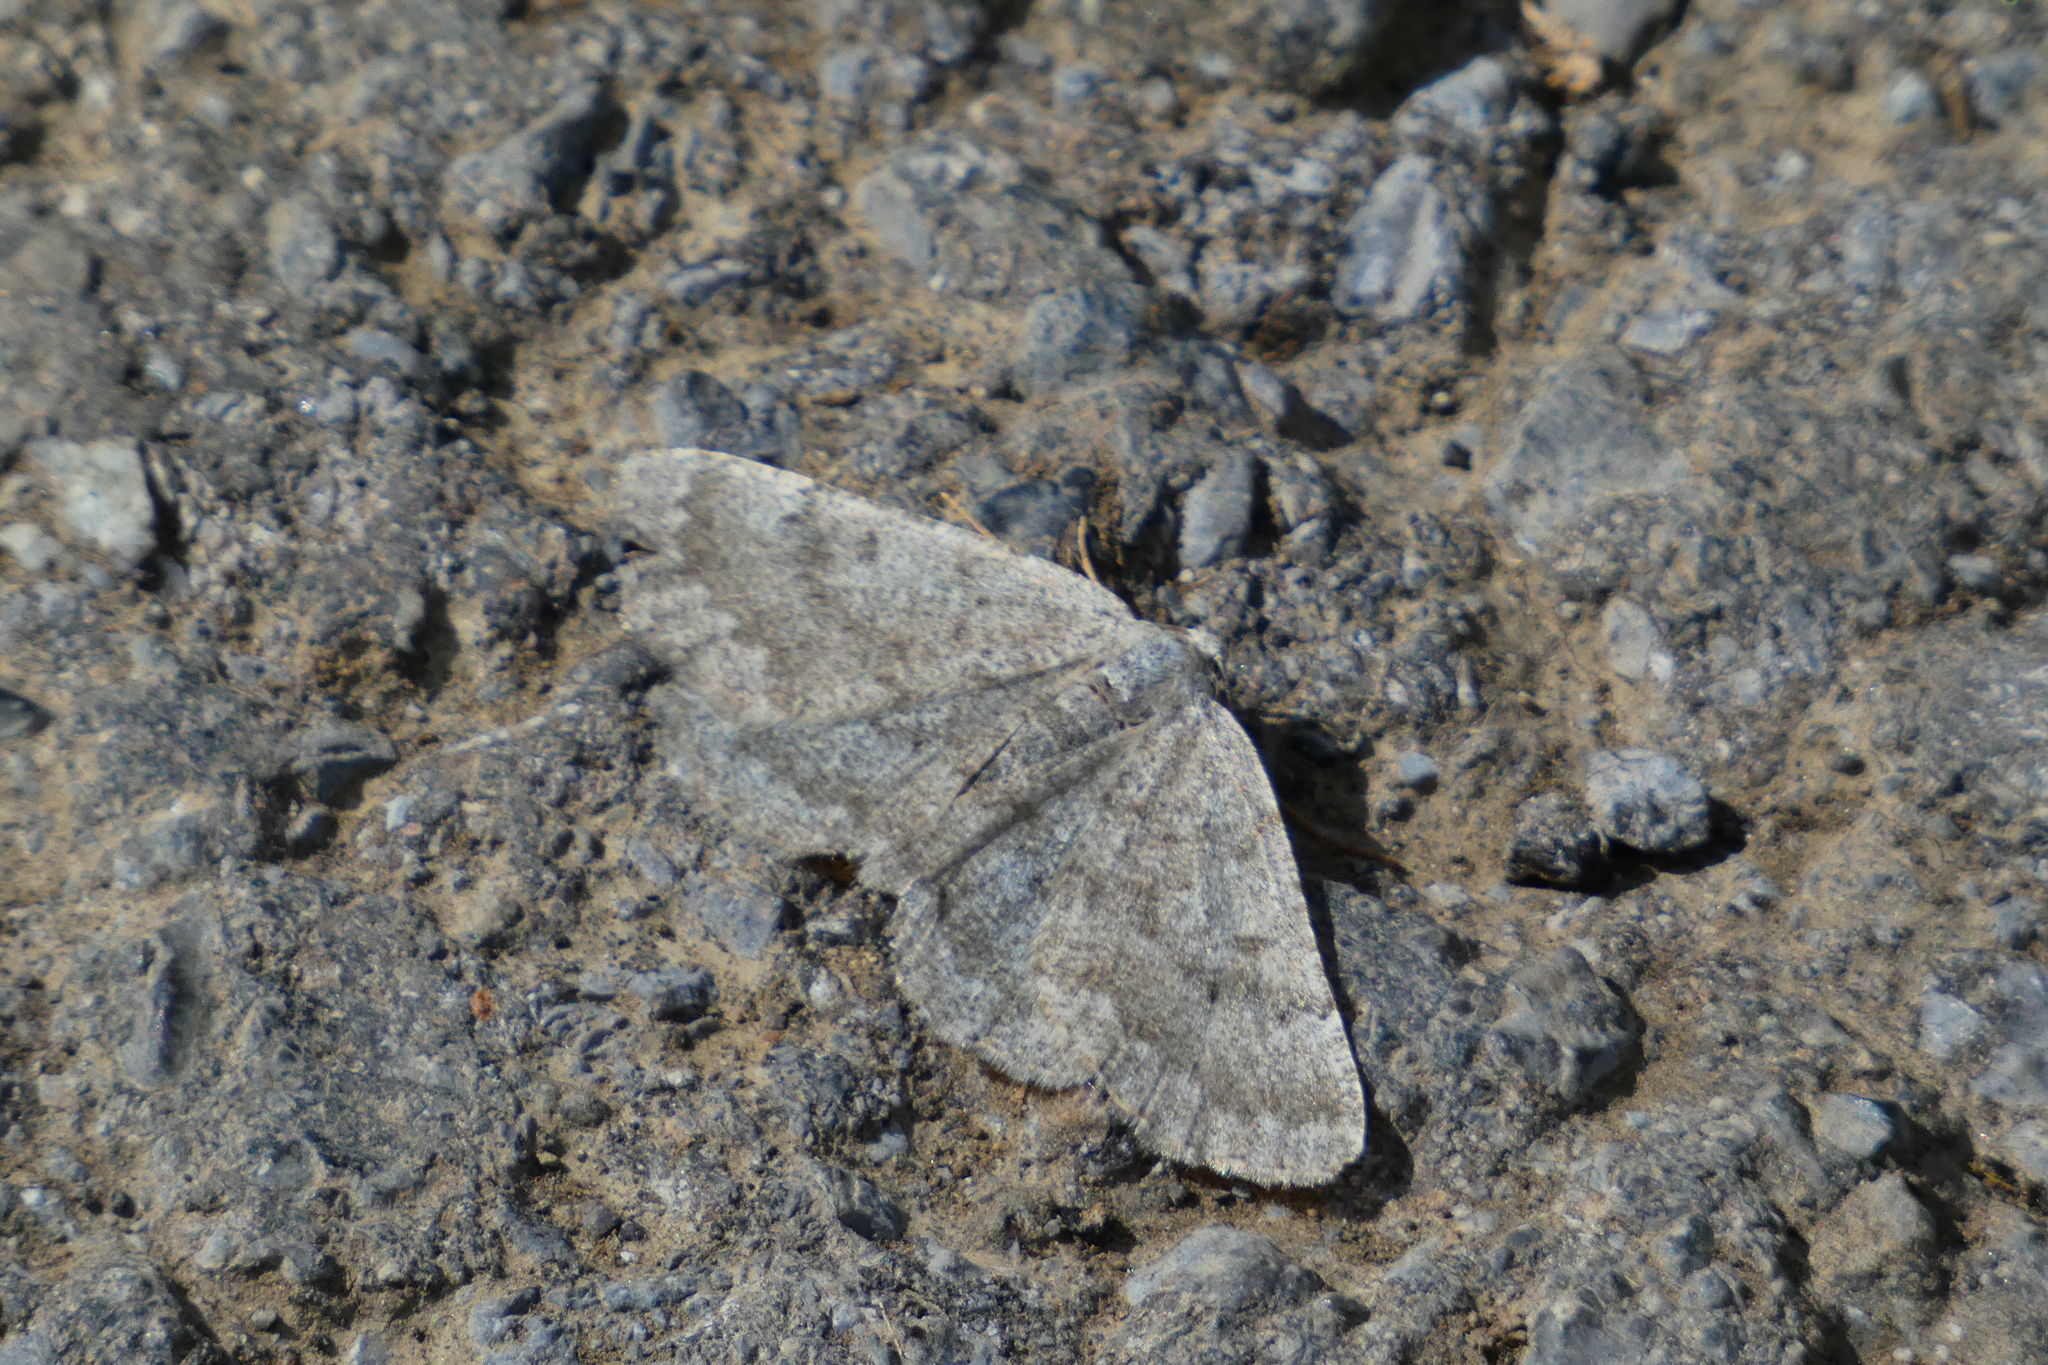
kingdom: Animalia
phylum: Arthropoda
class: Insecta
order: Lepidoptera
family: Geometridae
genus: Gnophos
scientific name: Gnophos obfuscata
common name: Scottish annulet
